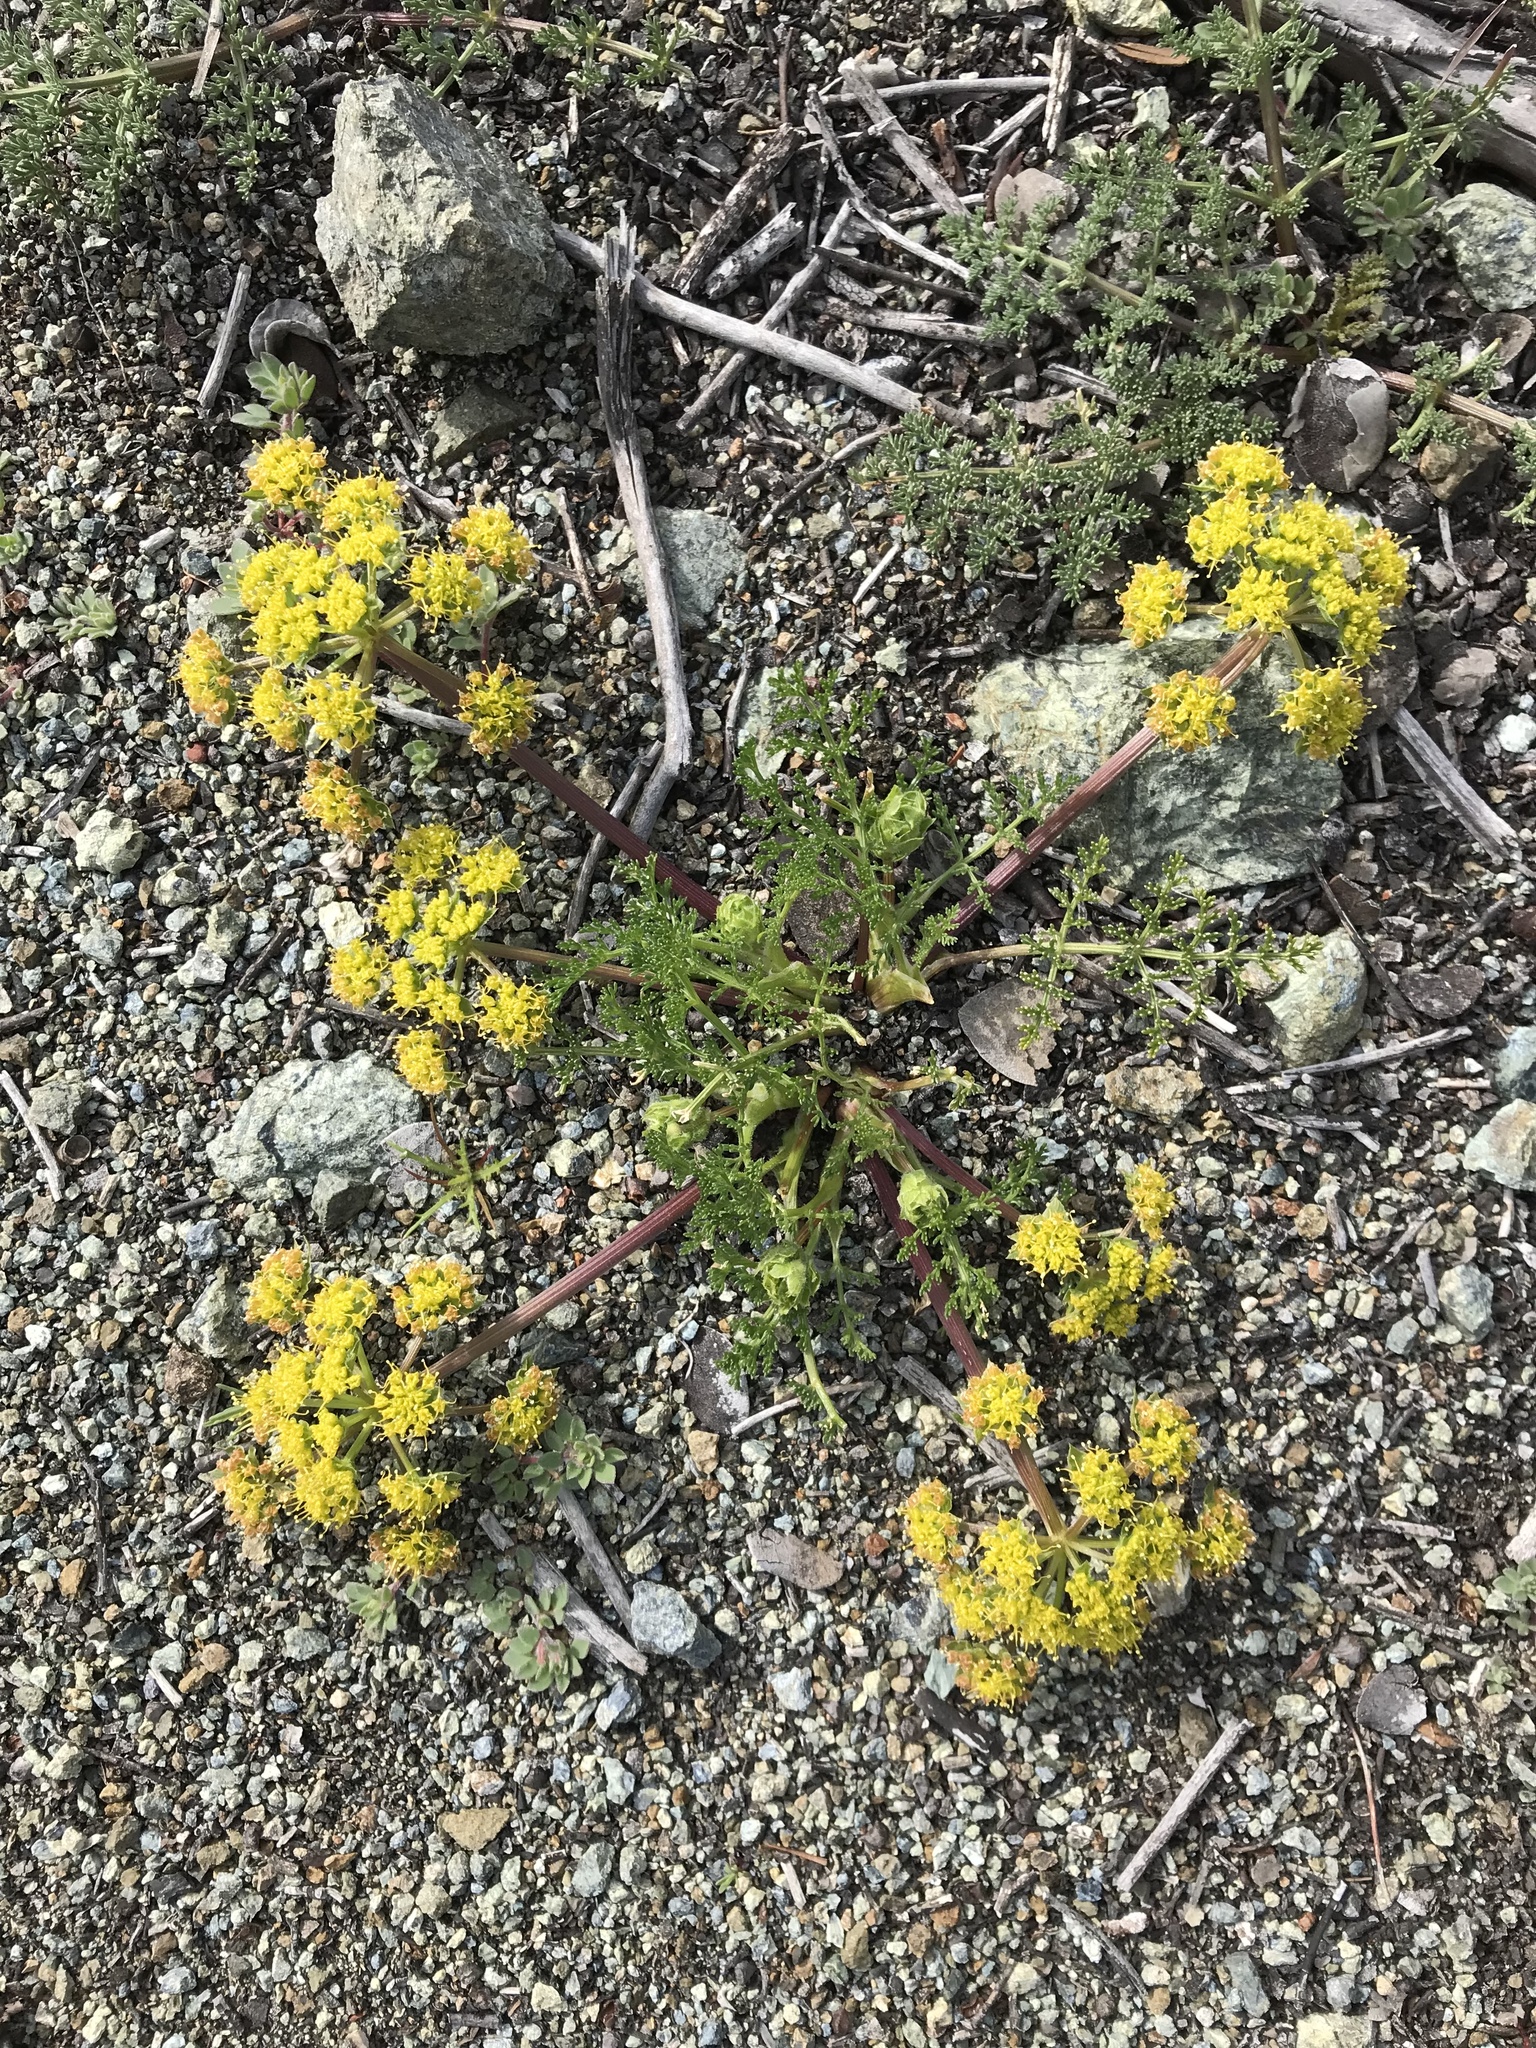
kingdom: Plantae
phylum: Tracheophyta
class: Magnoliopsida
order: Apiales
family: Apiaceae
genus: Lomatium
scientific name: Lomatium dasycarpum
